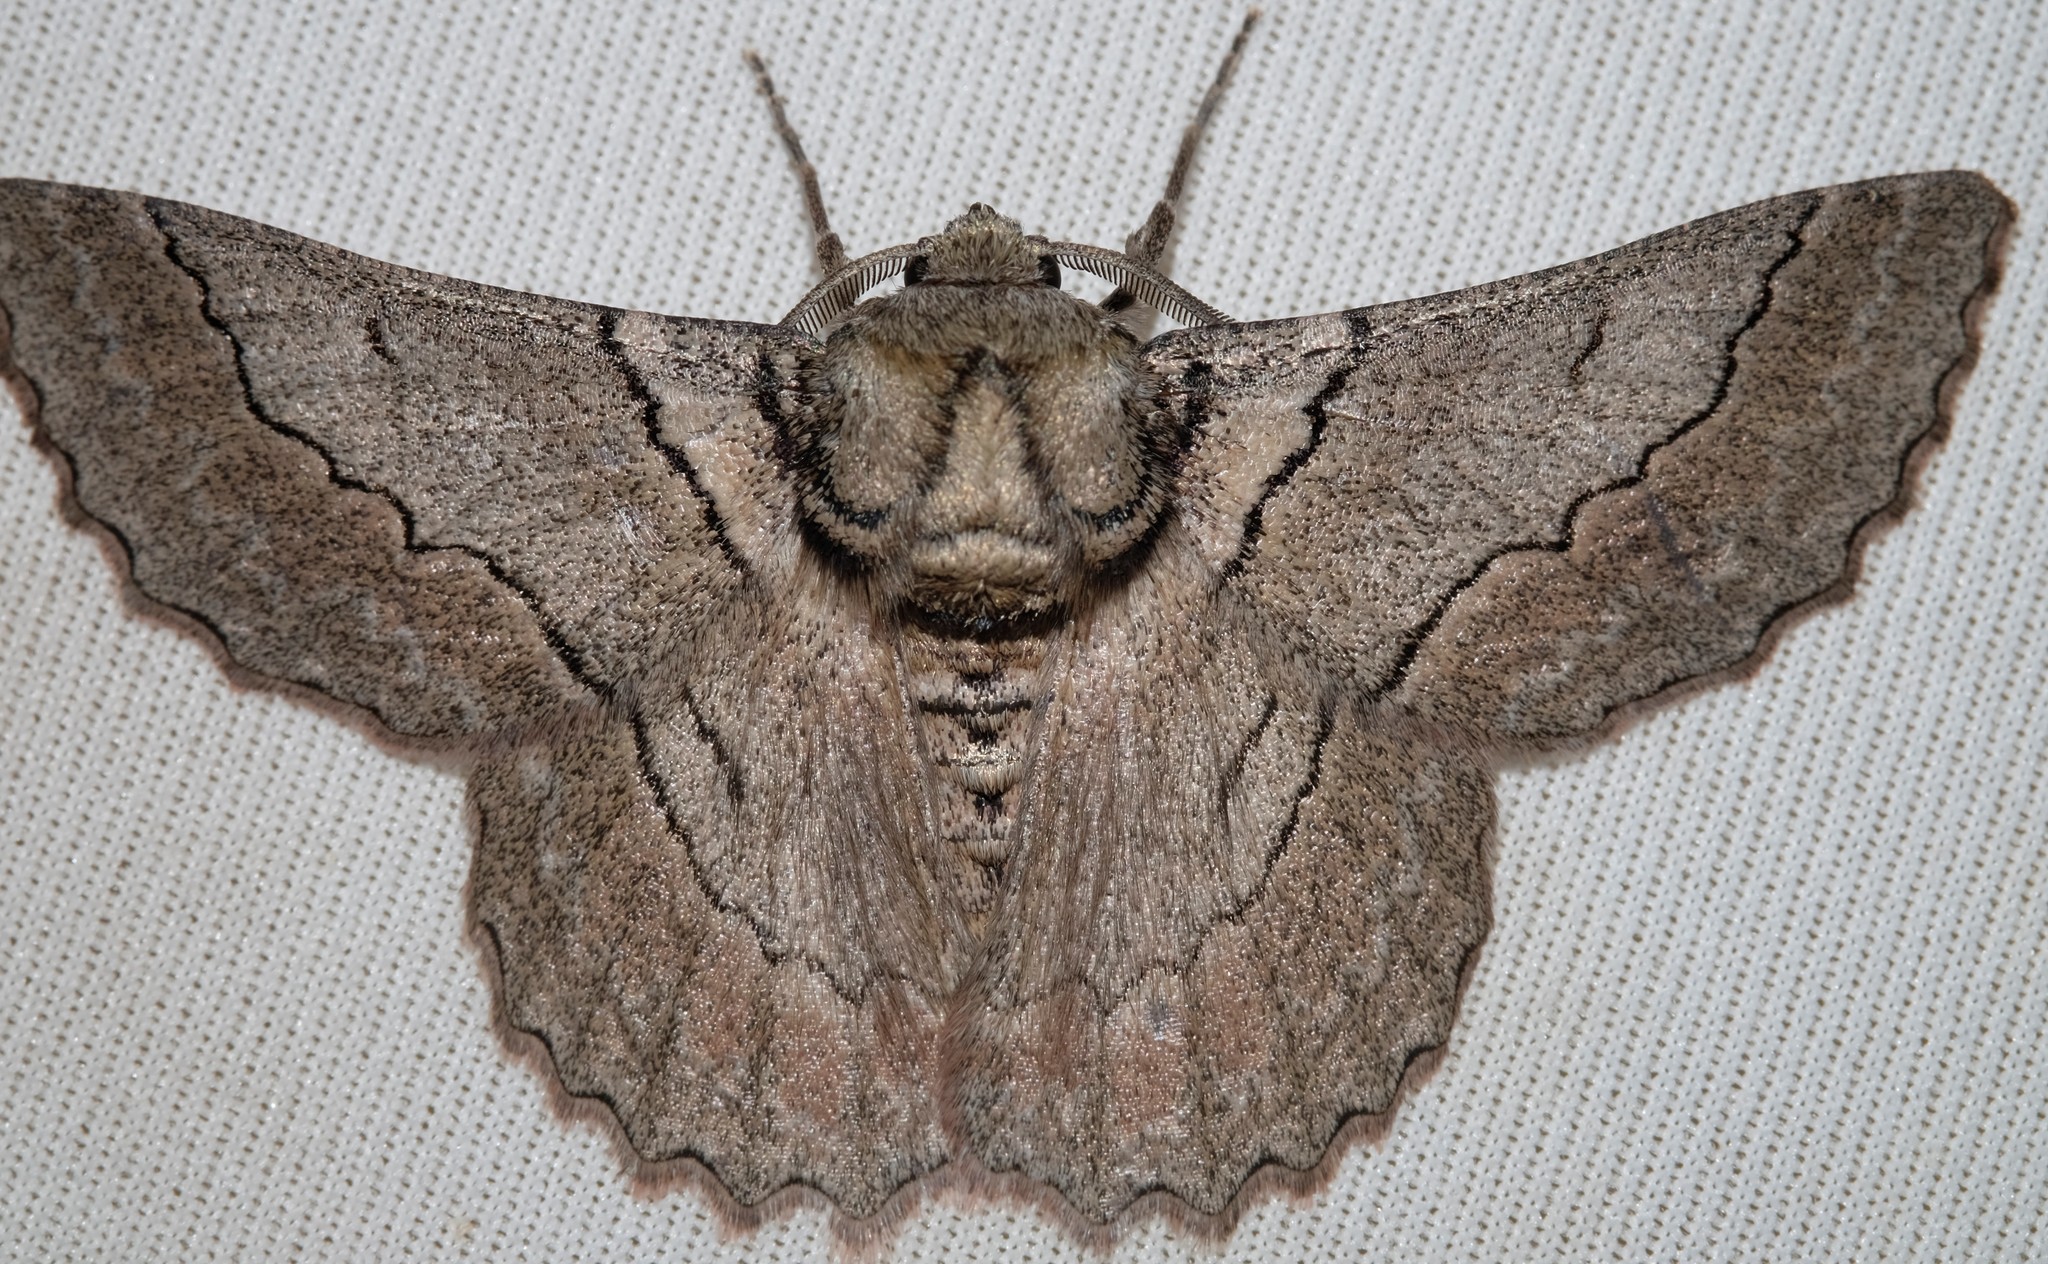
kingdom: Animalia
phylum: Arthropoda
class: Insecta
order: Lepidoptera
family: Geometridae
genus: Hypobapta
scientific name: Hypobapta tachyhalotaria
